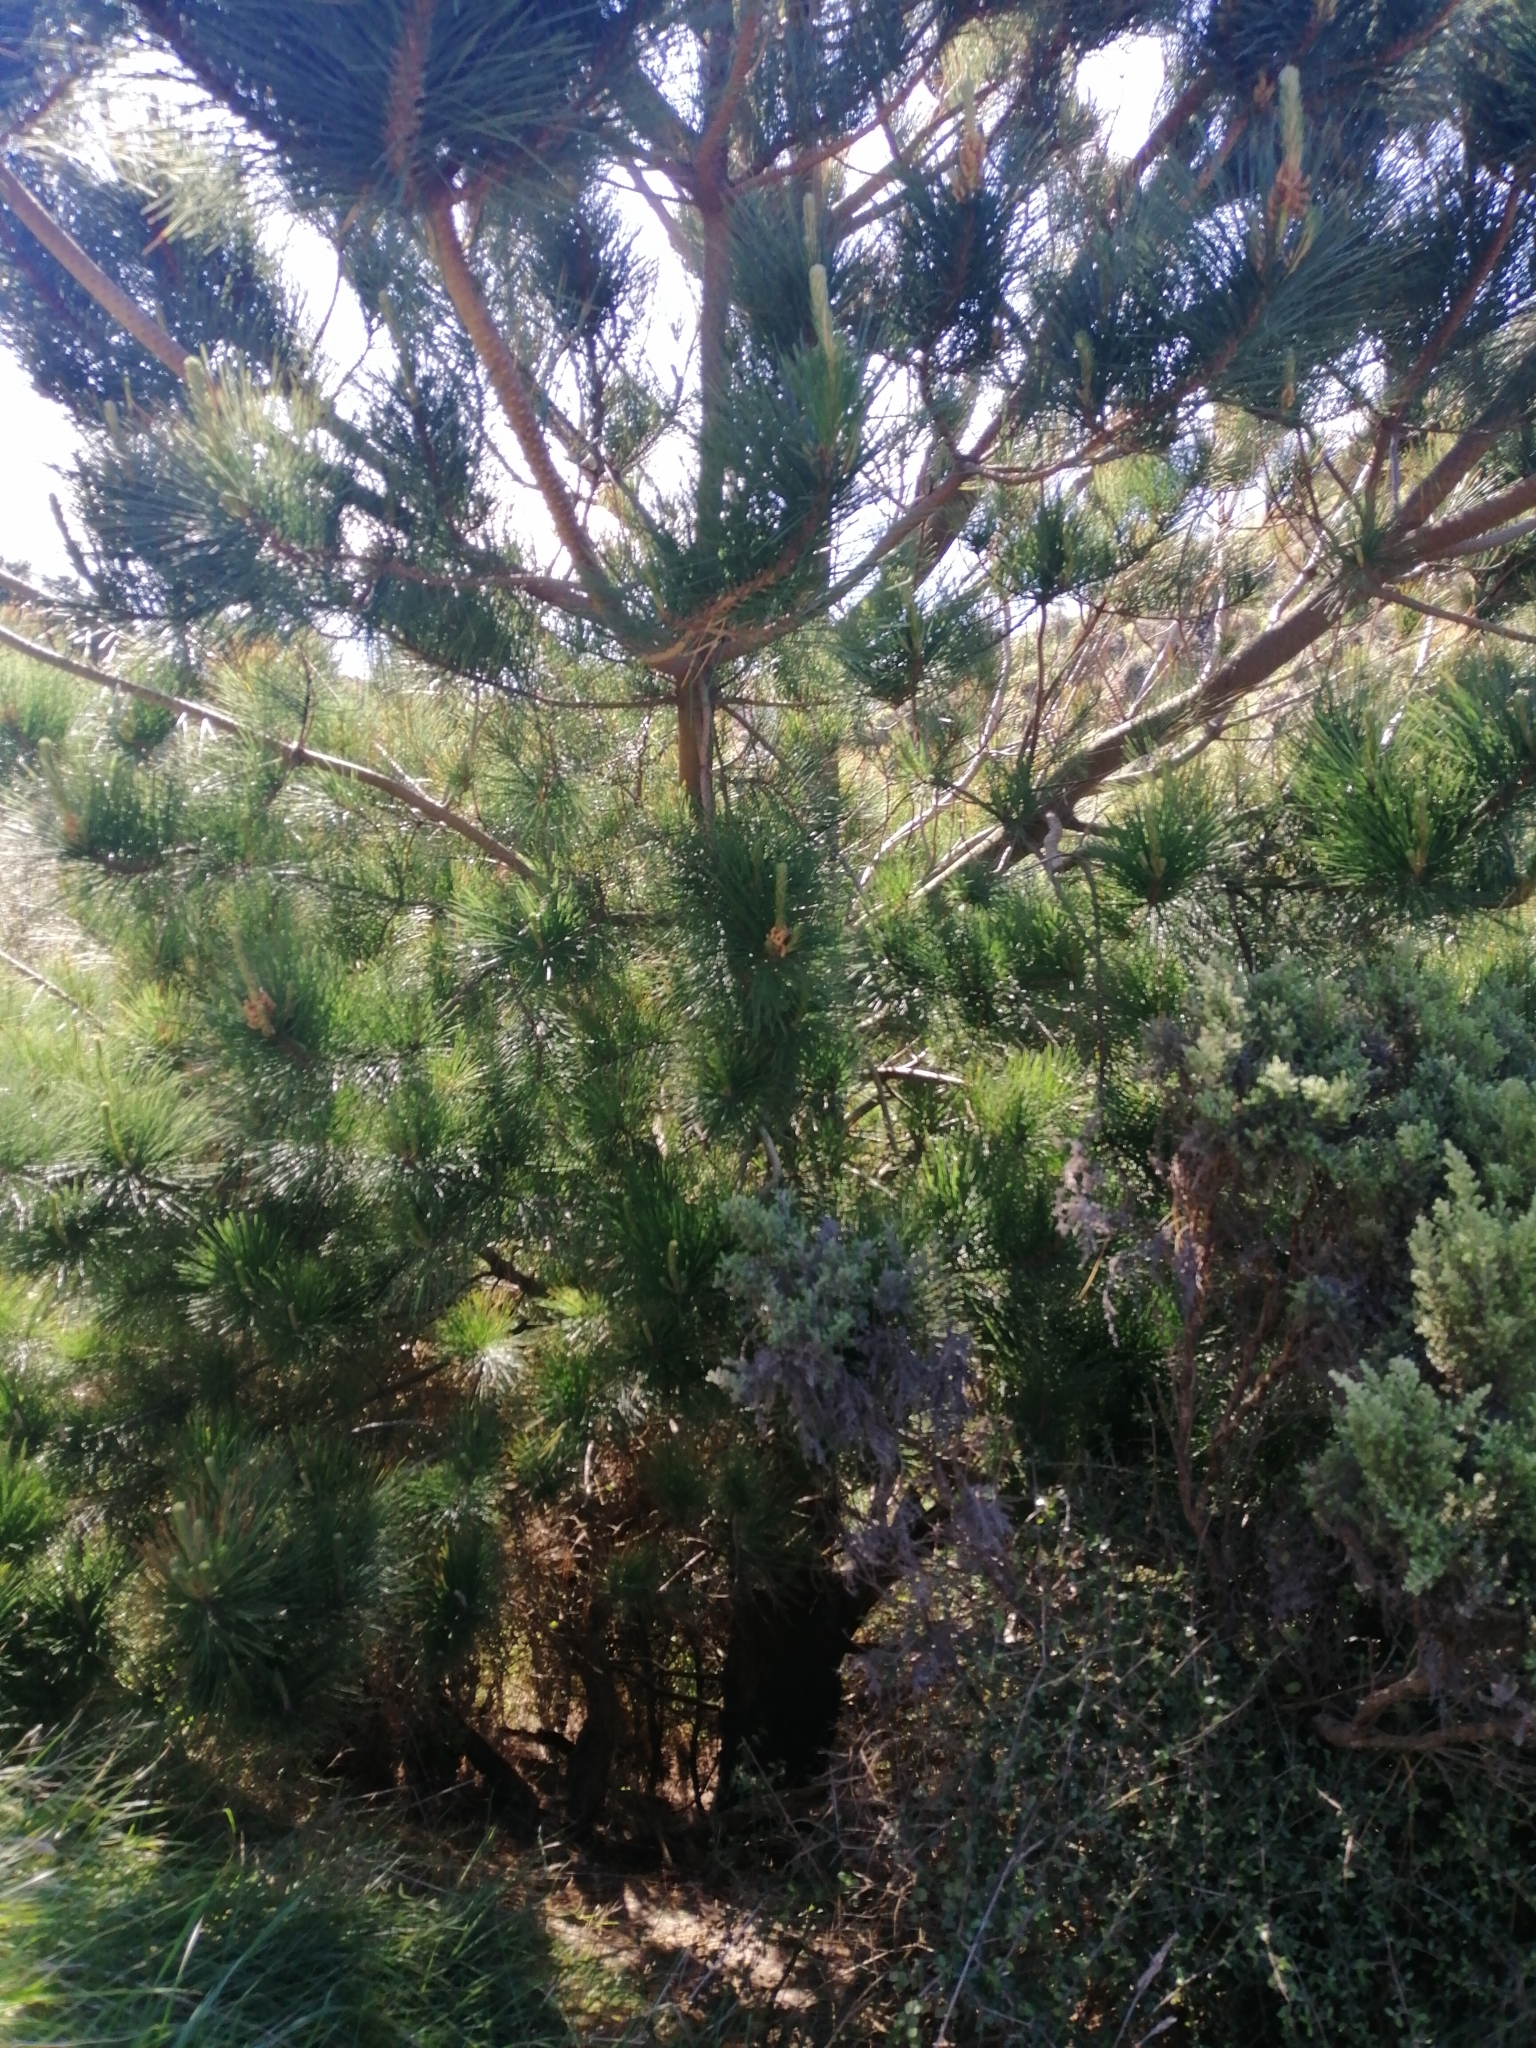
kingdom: Plantae
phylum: Tracheophyta
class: Pinopsida
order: Pinales
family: Pinaceae
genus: Pinus
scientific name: Pinus radiata
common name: Monterey pine
